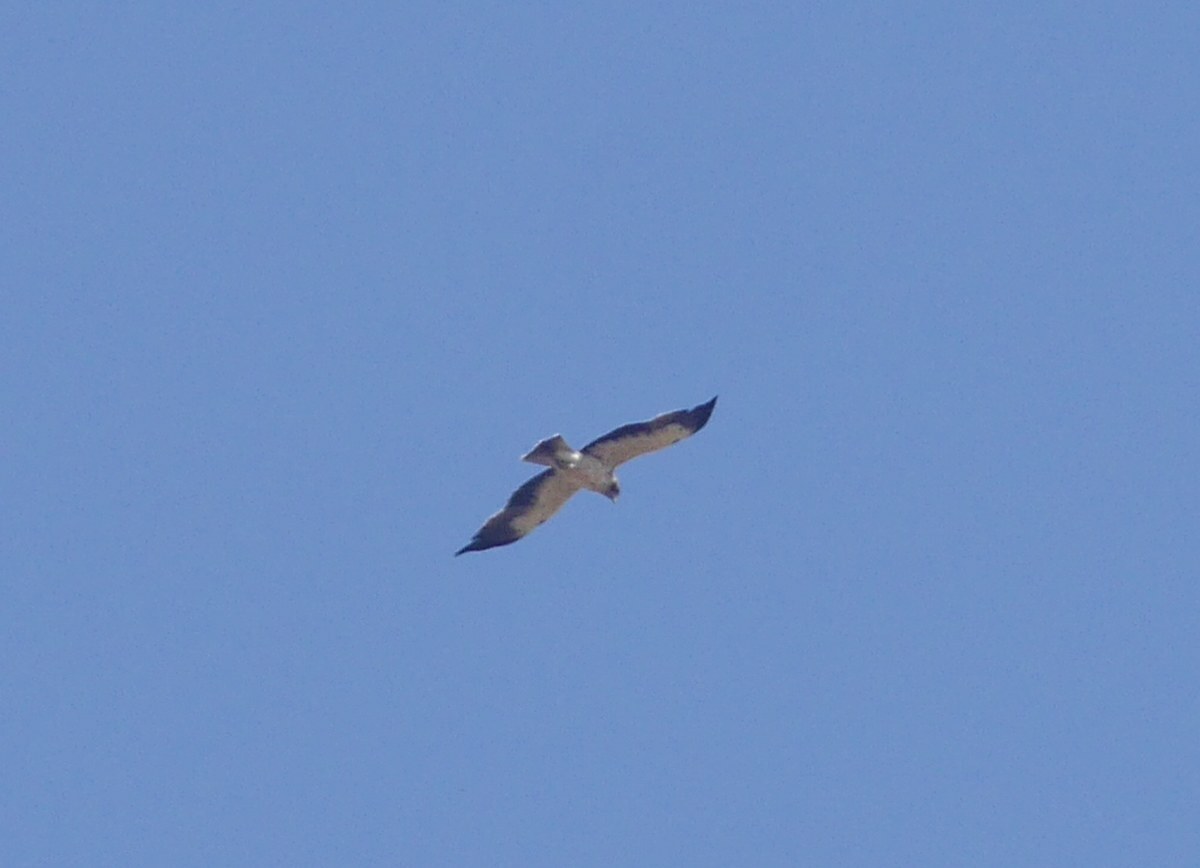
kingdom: Animalia
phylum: Chordata
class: Aves
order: Accipitriformes
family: Accipitridae
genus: Hieraaetus
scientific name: Hieraaetus pennatus
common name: Booted eagle
